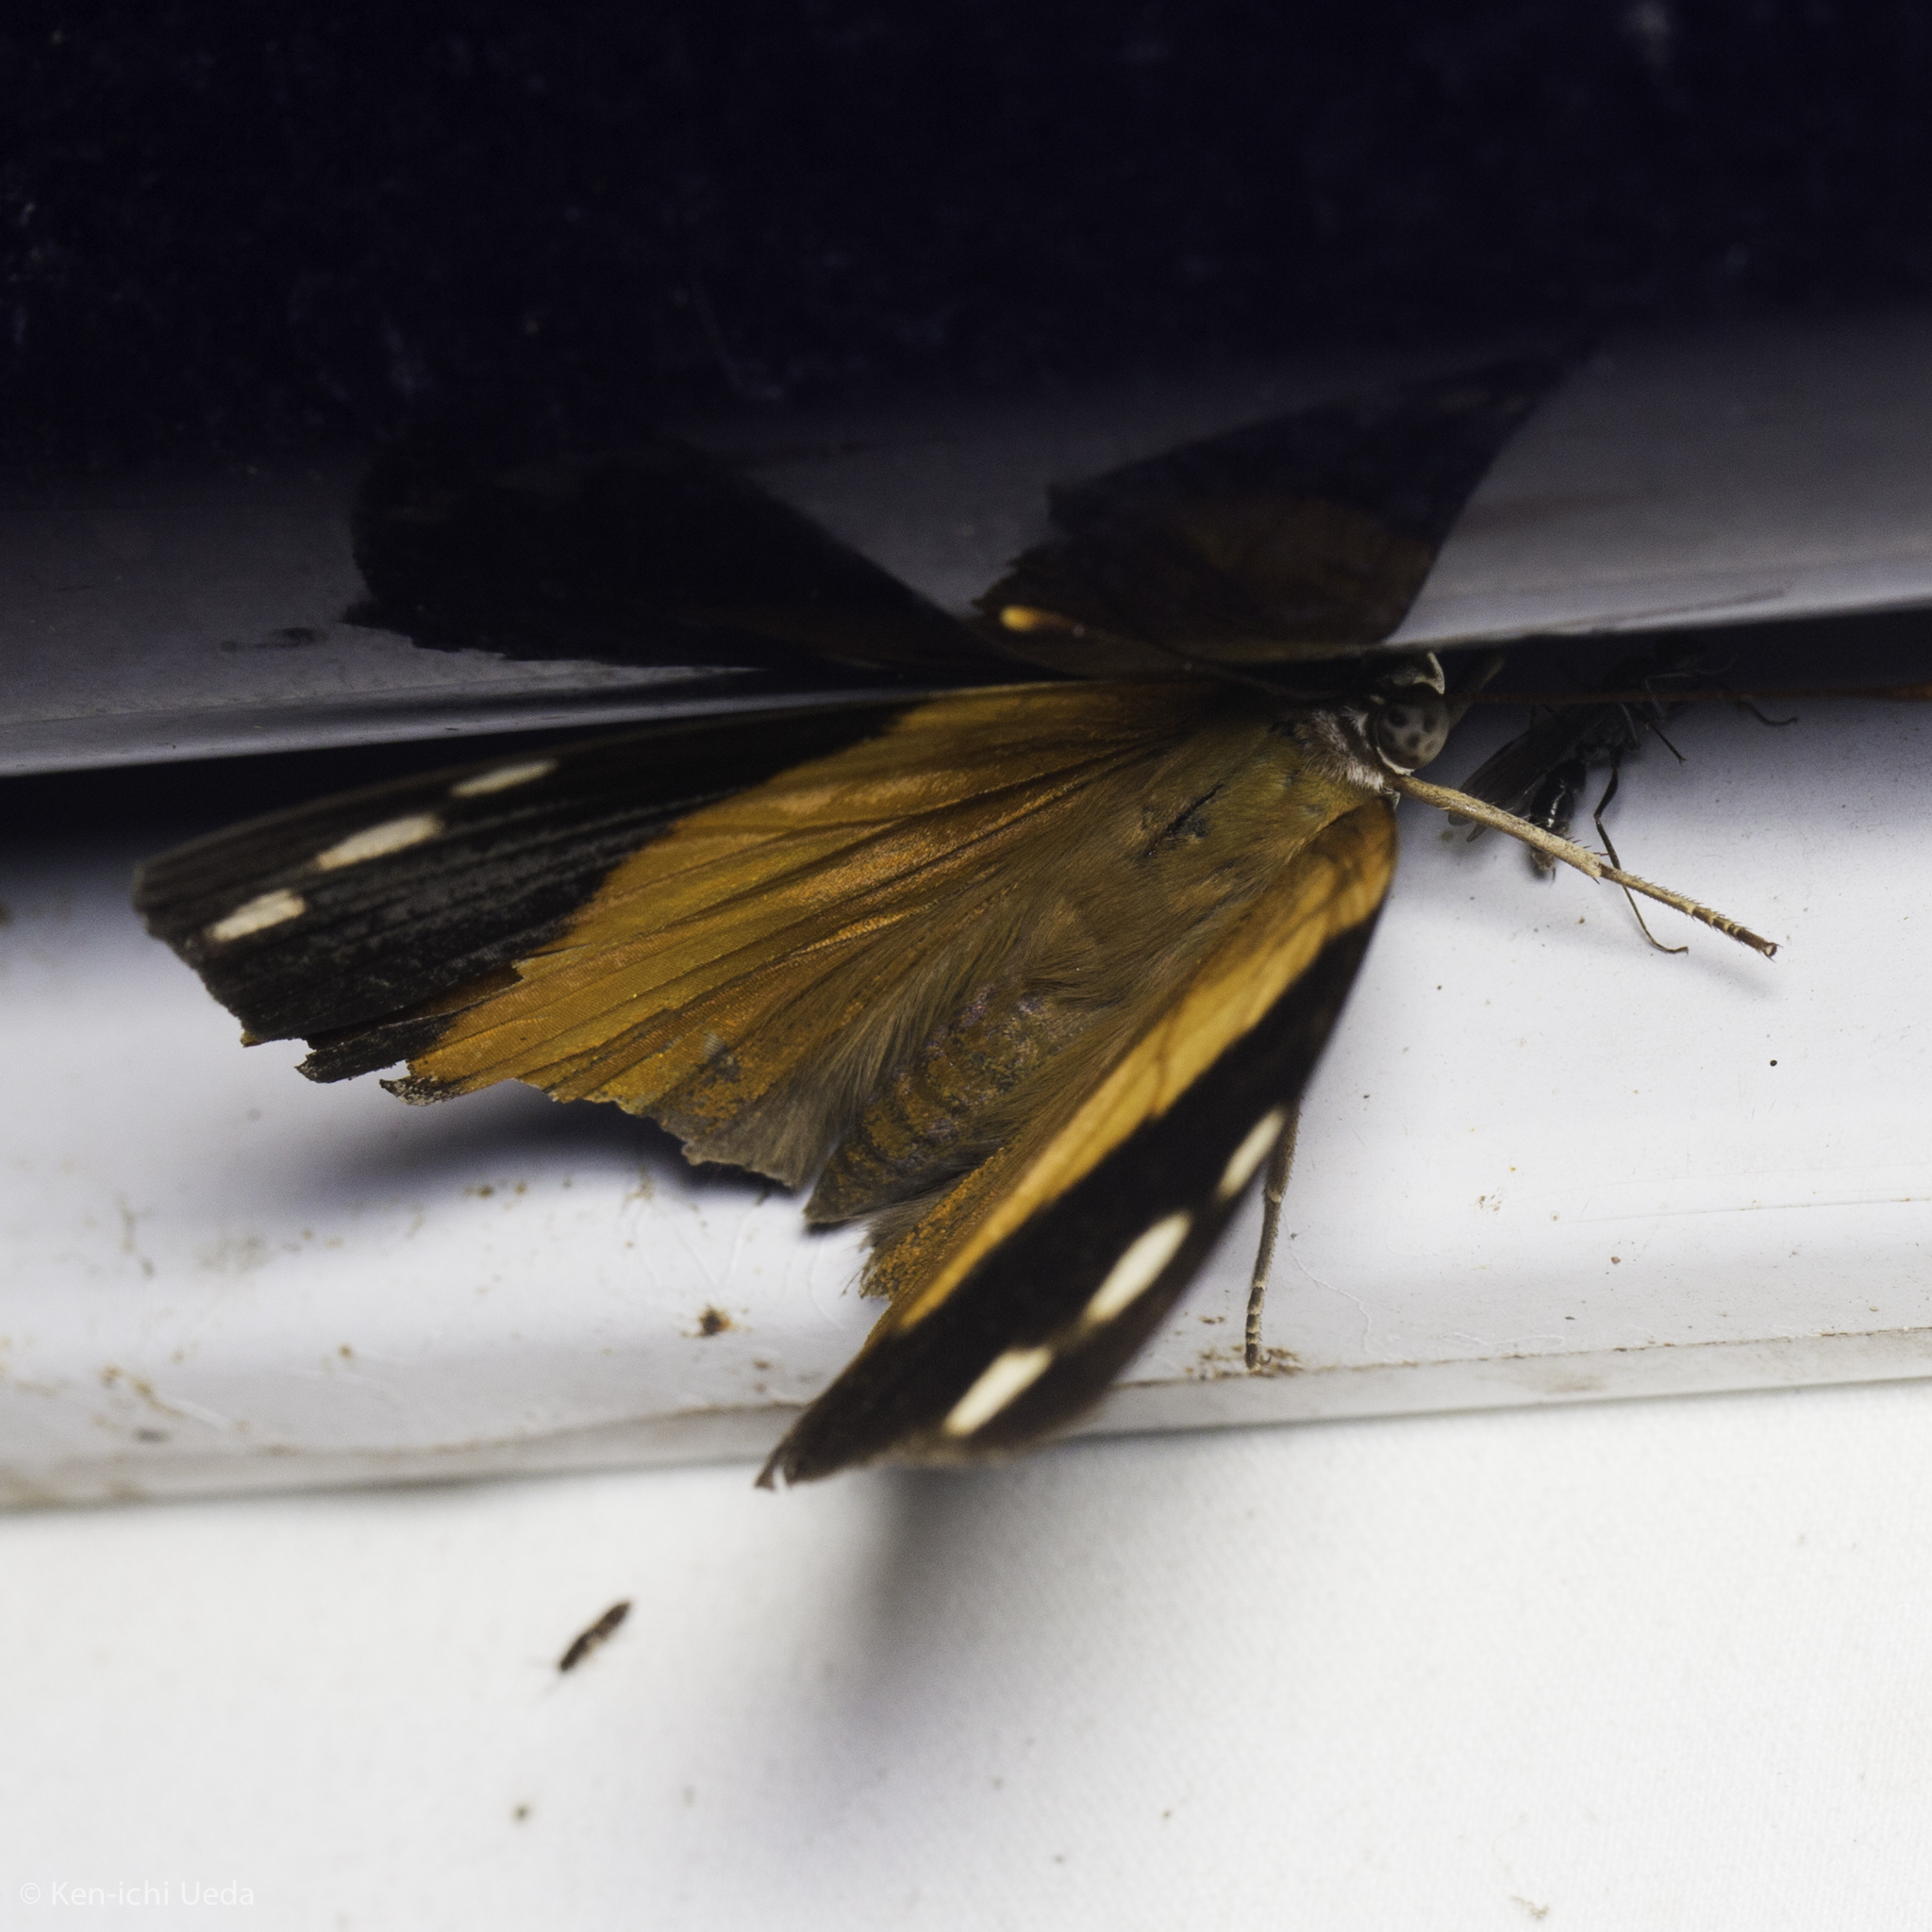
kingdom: Animalia
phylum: Arthropoda
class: Insecta
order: Lepidoptera
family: Nymphalidae
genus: Smyrna
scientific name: Smyrna blomfildia
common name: Blomfild's beauty
